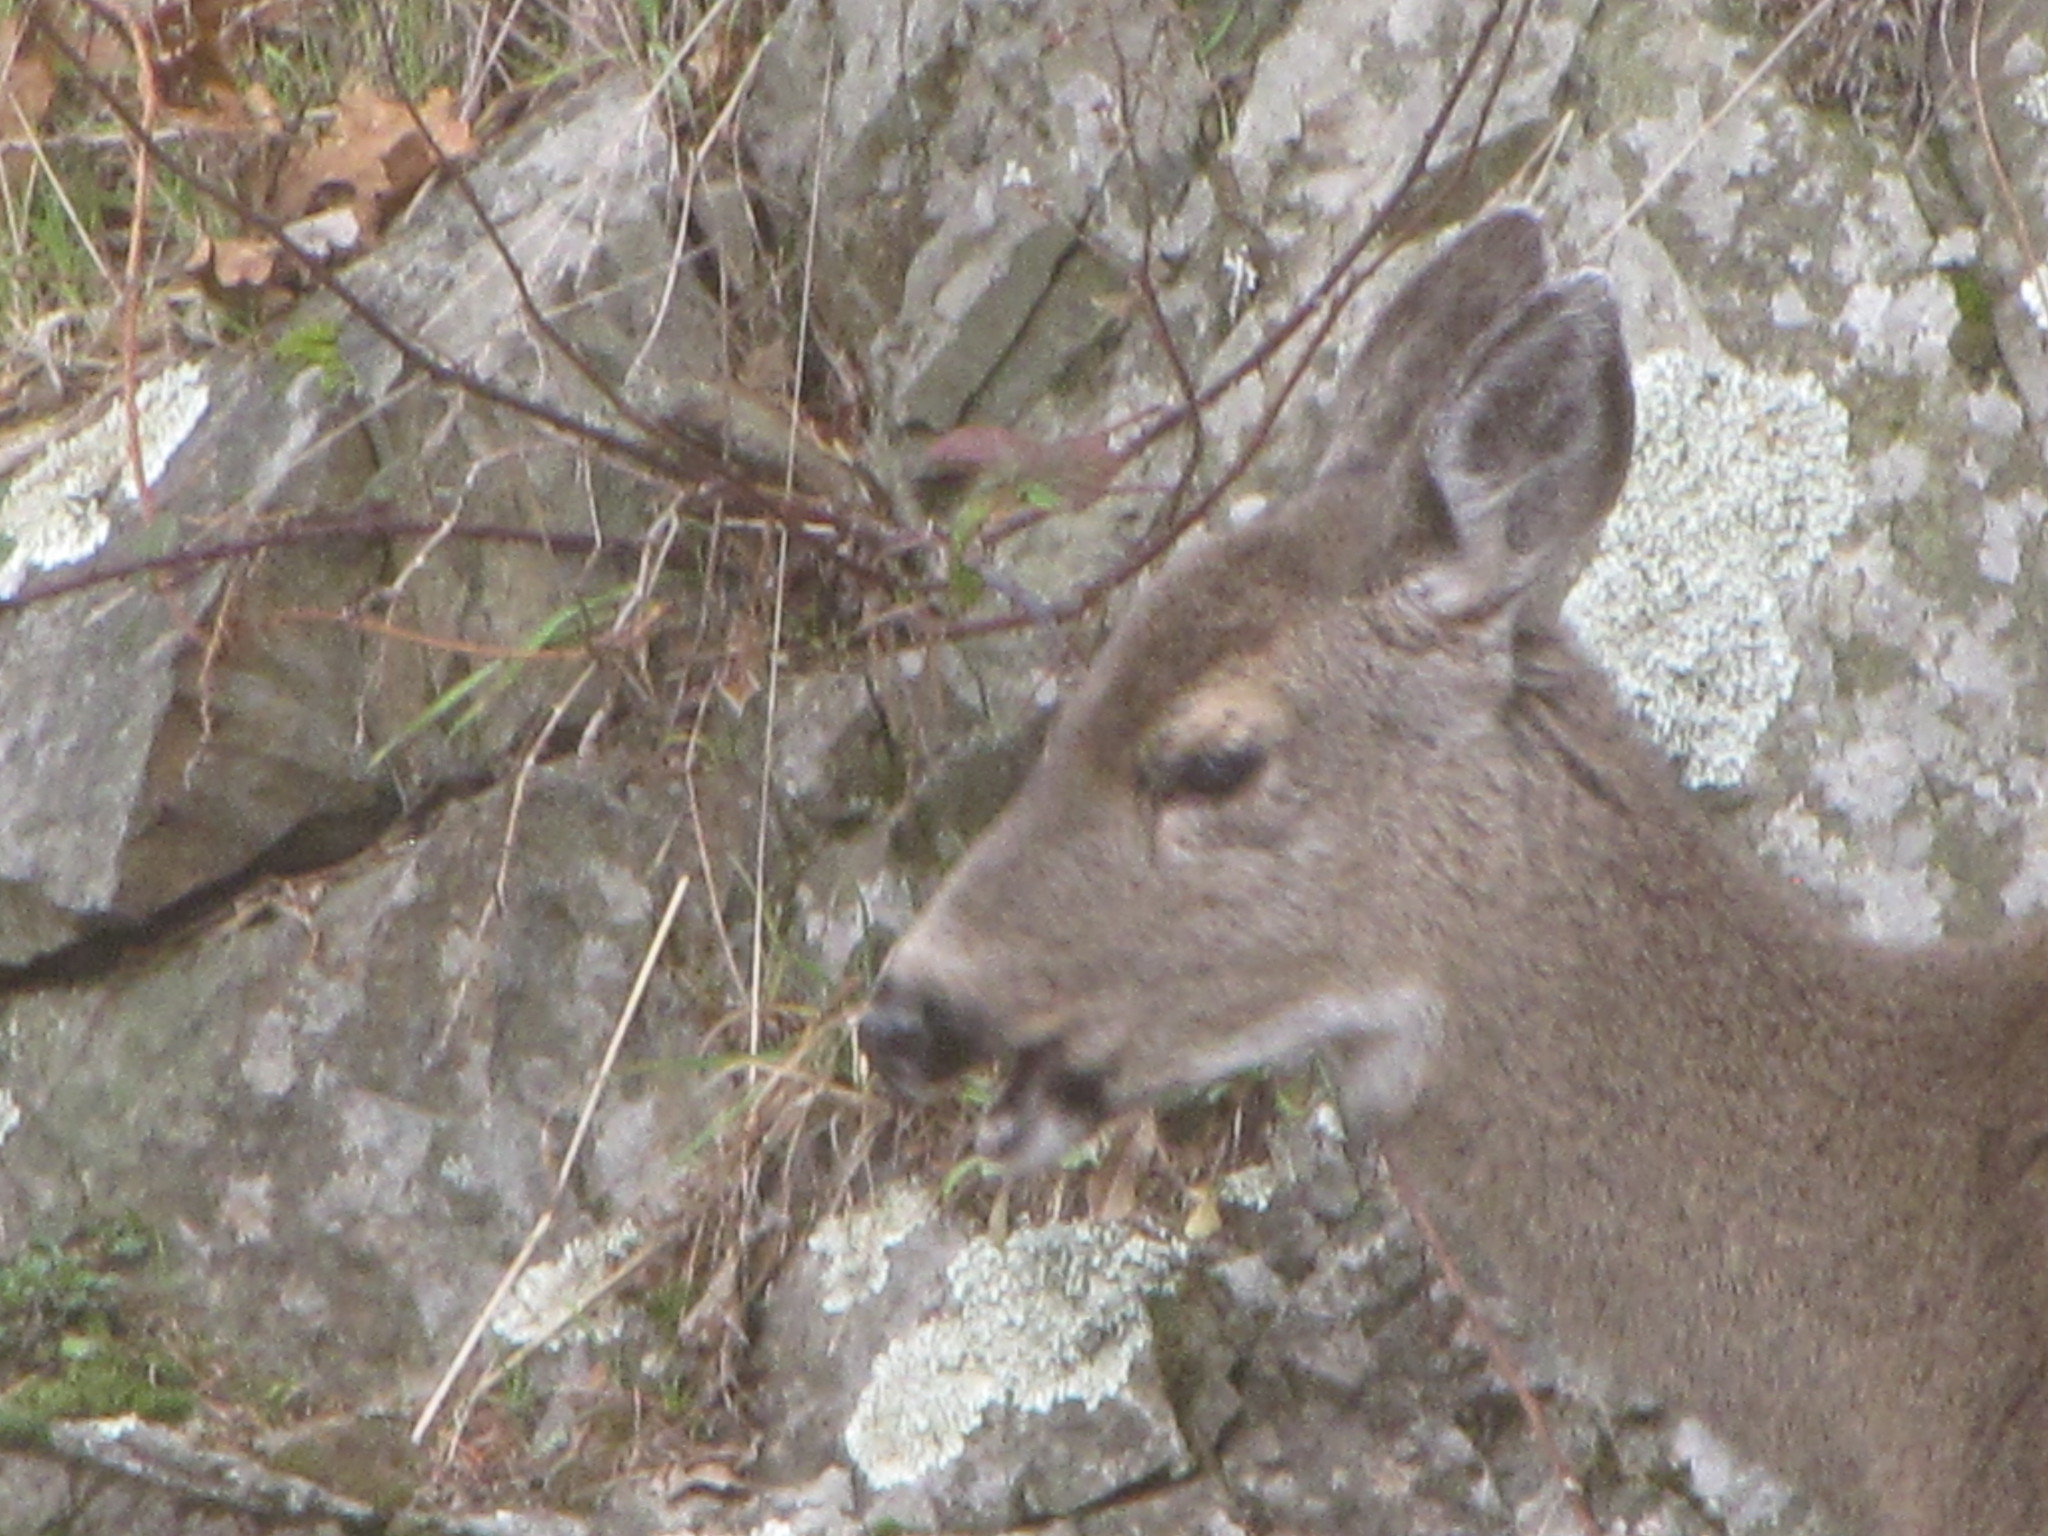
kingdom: Animalia
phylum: Chordata
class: Mammalia
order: Artiodactyla
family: Cervidae
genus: Odocoileus
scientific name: Odocoileus hemionus
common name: Mule deer
